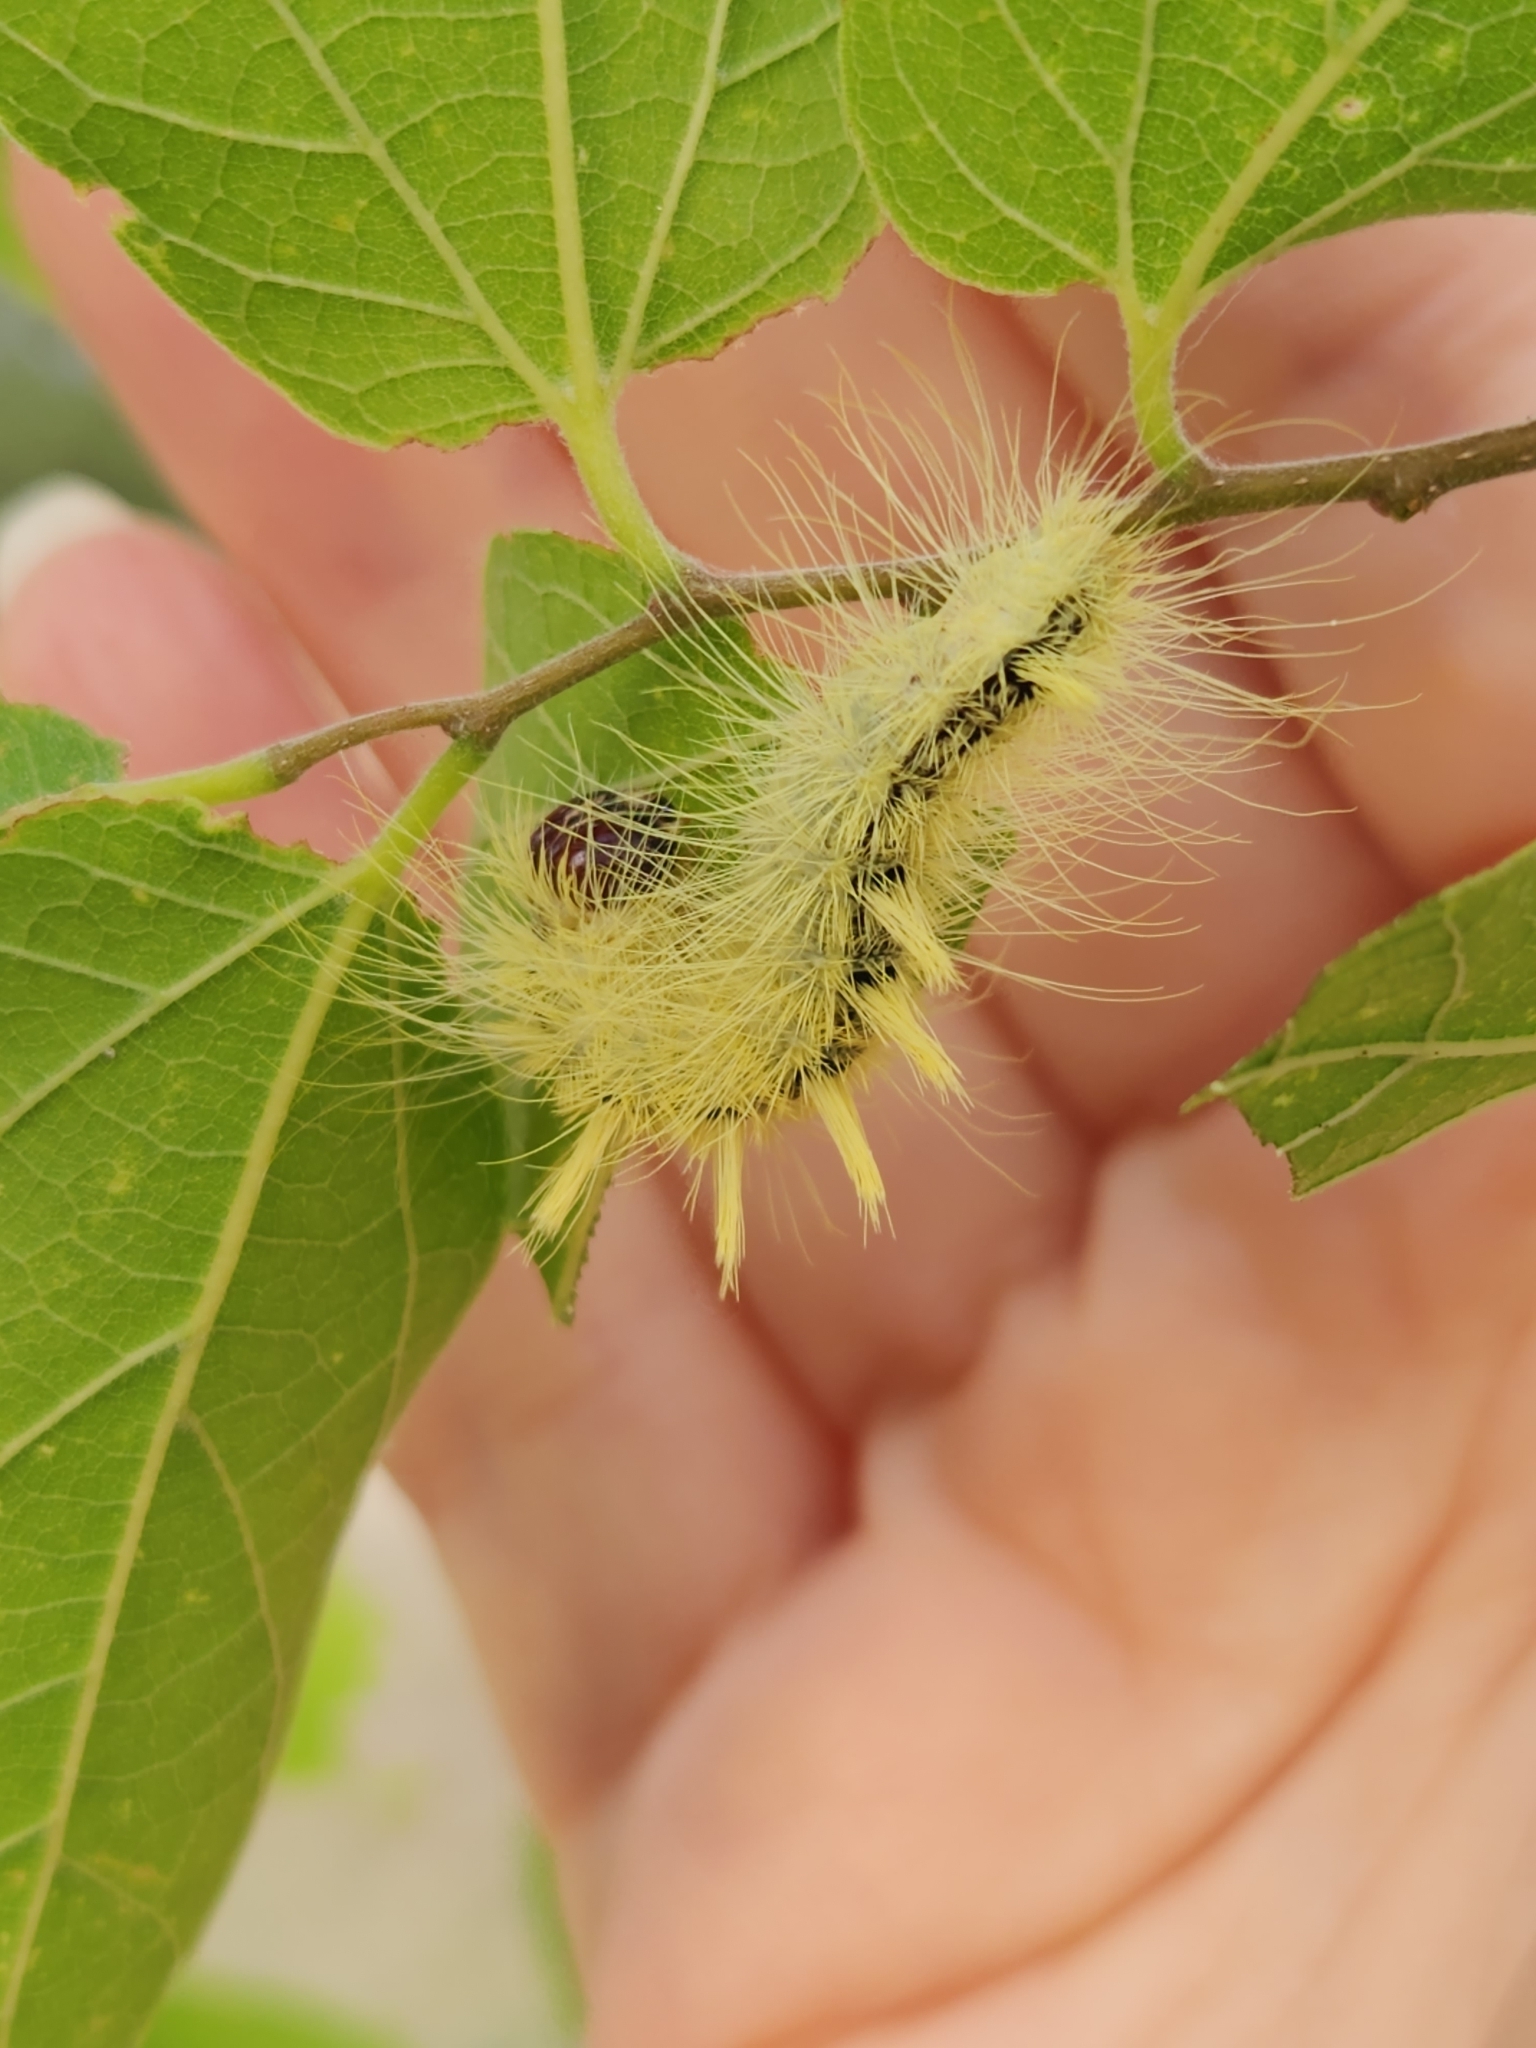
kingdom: Animalia
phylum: Arthropoda
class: Insecta
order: Lepidoptera
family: Noctuidae
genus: Acronicta
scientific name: Acronicta rubricoma
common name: Hackberry dagger
